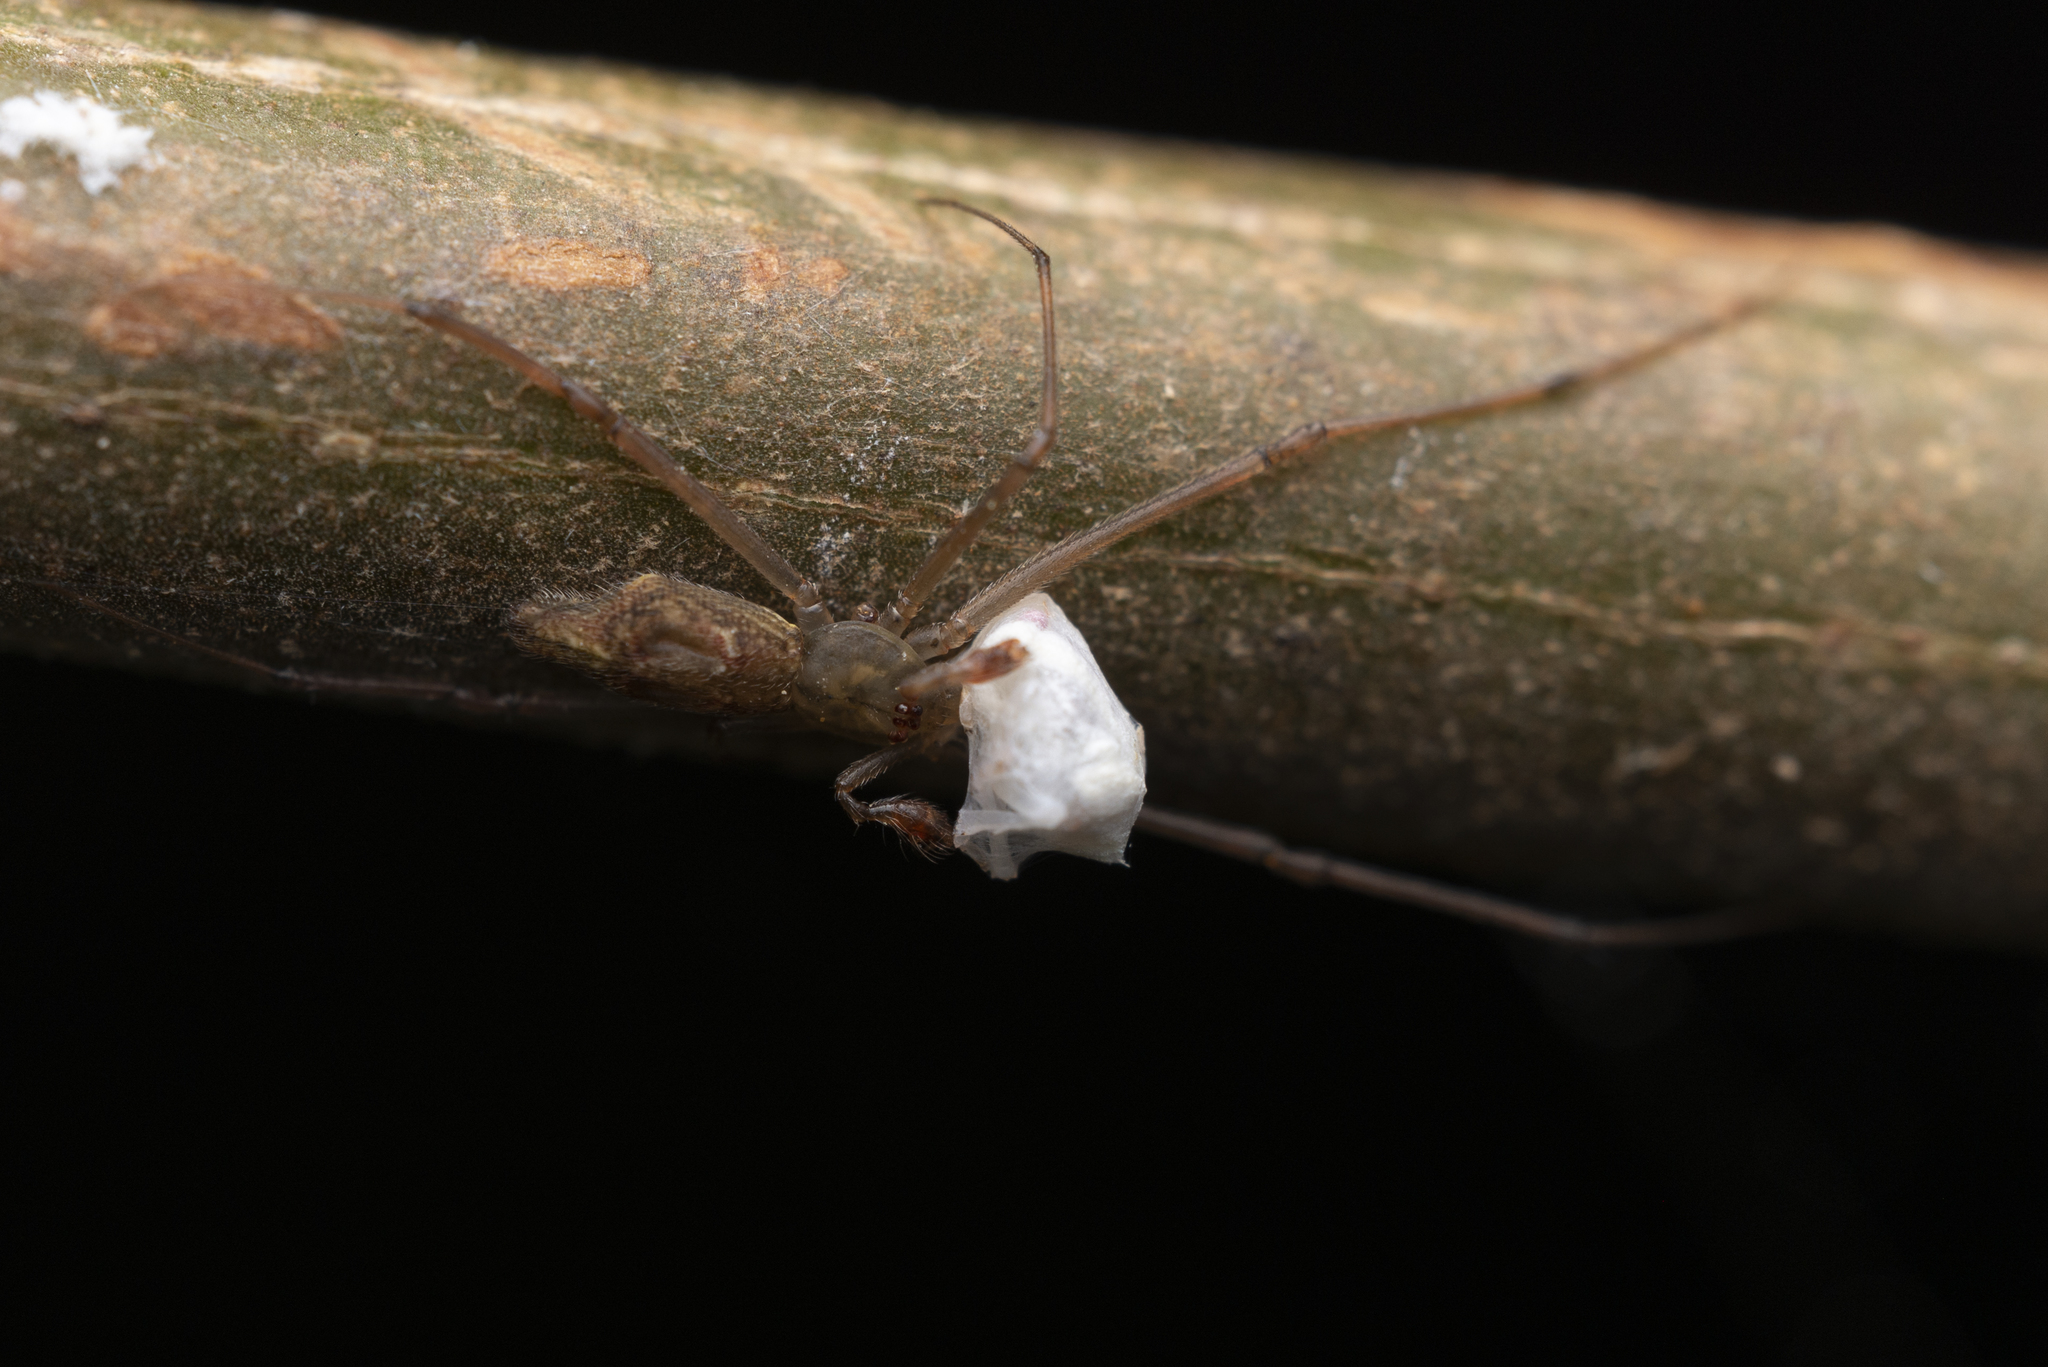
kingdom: Animalia
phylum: Arthropoda
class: Arachnida
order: Araneae
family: Theridiidae
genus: Moneta
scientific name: Moneta mirabilis
